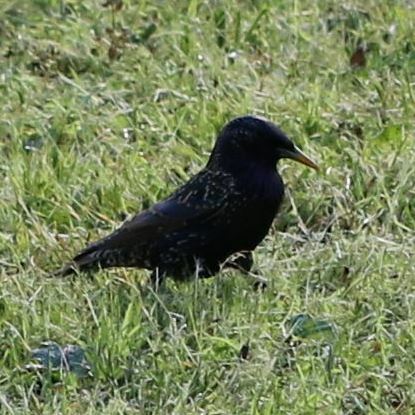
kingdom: Animalia
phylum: Chordata
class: Aves
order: Passeriformes
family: Sturnidae
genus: Sturnus
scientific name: Sturnus vulgaris
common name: Common starling
